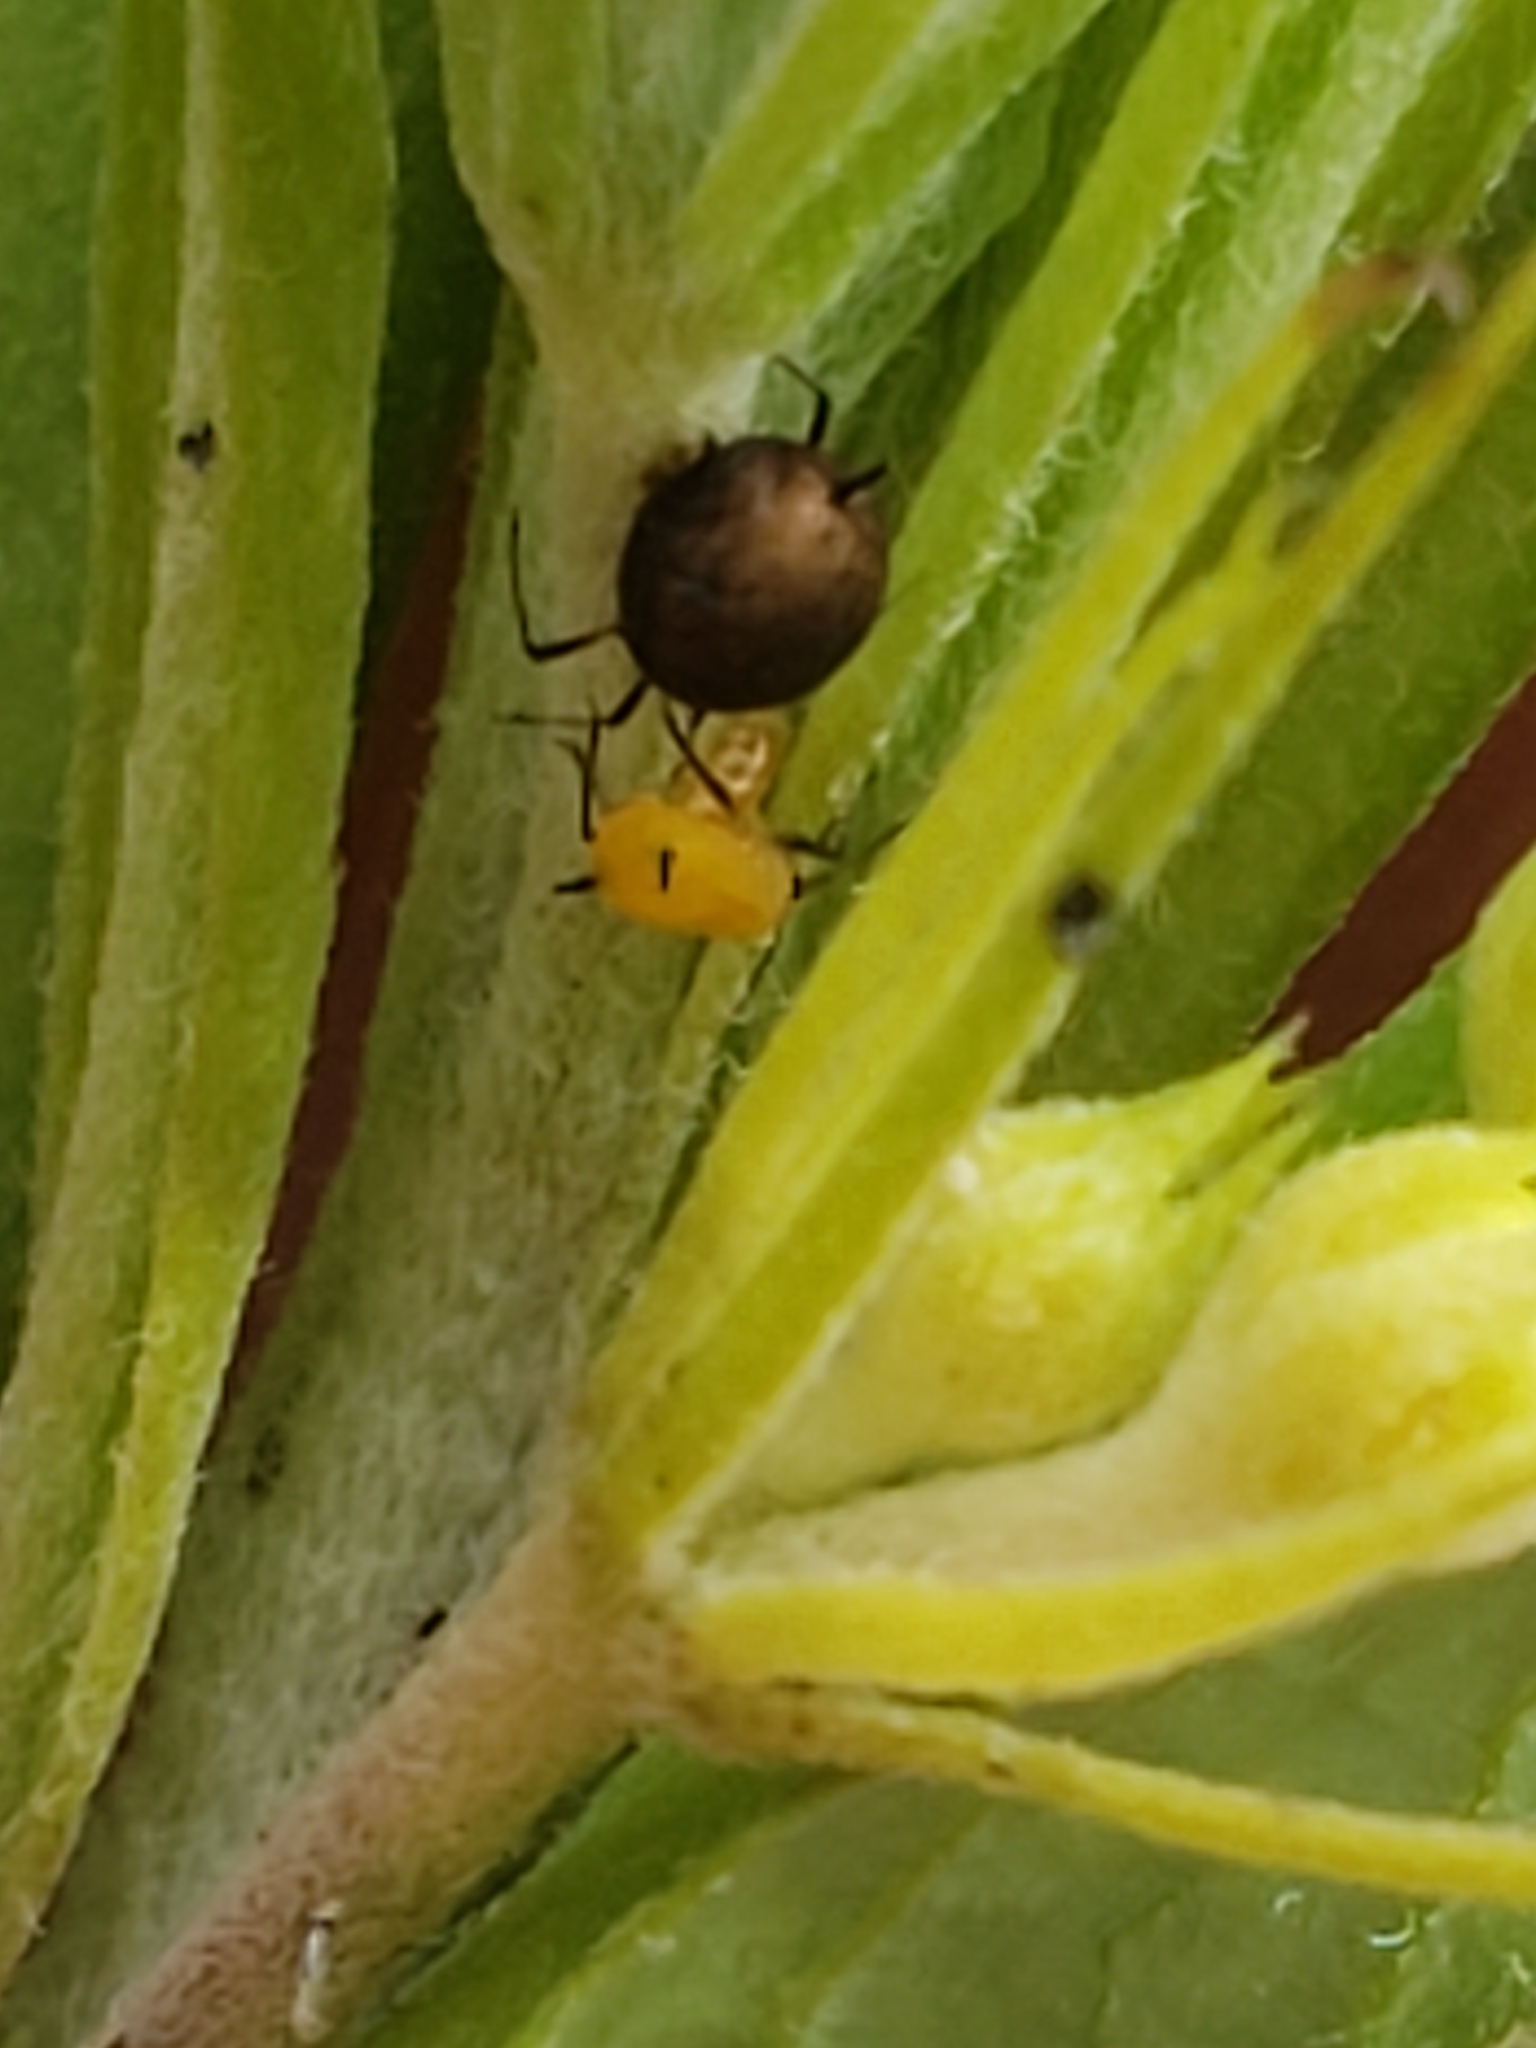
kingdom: Animalia
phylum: Arthropoda
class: Insecta
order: Hemiptera
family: Aphididae
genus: Aphis
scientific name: Aphis nerii
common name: Oleander aphid
